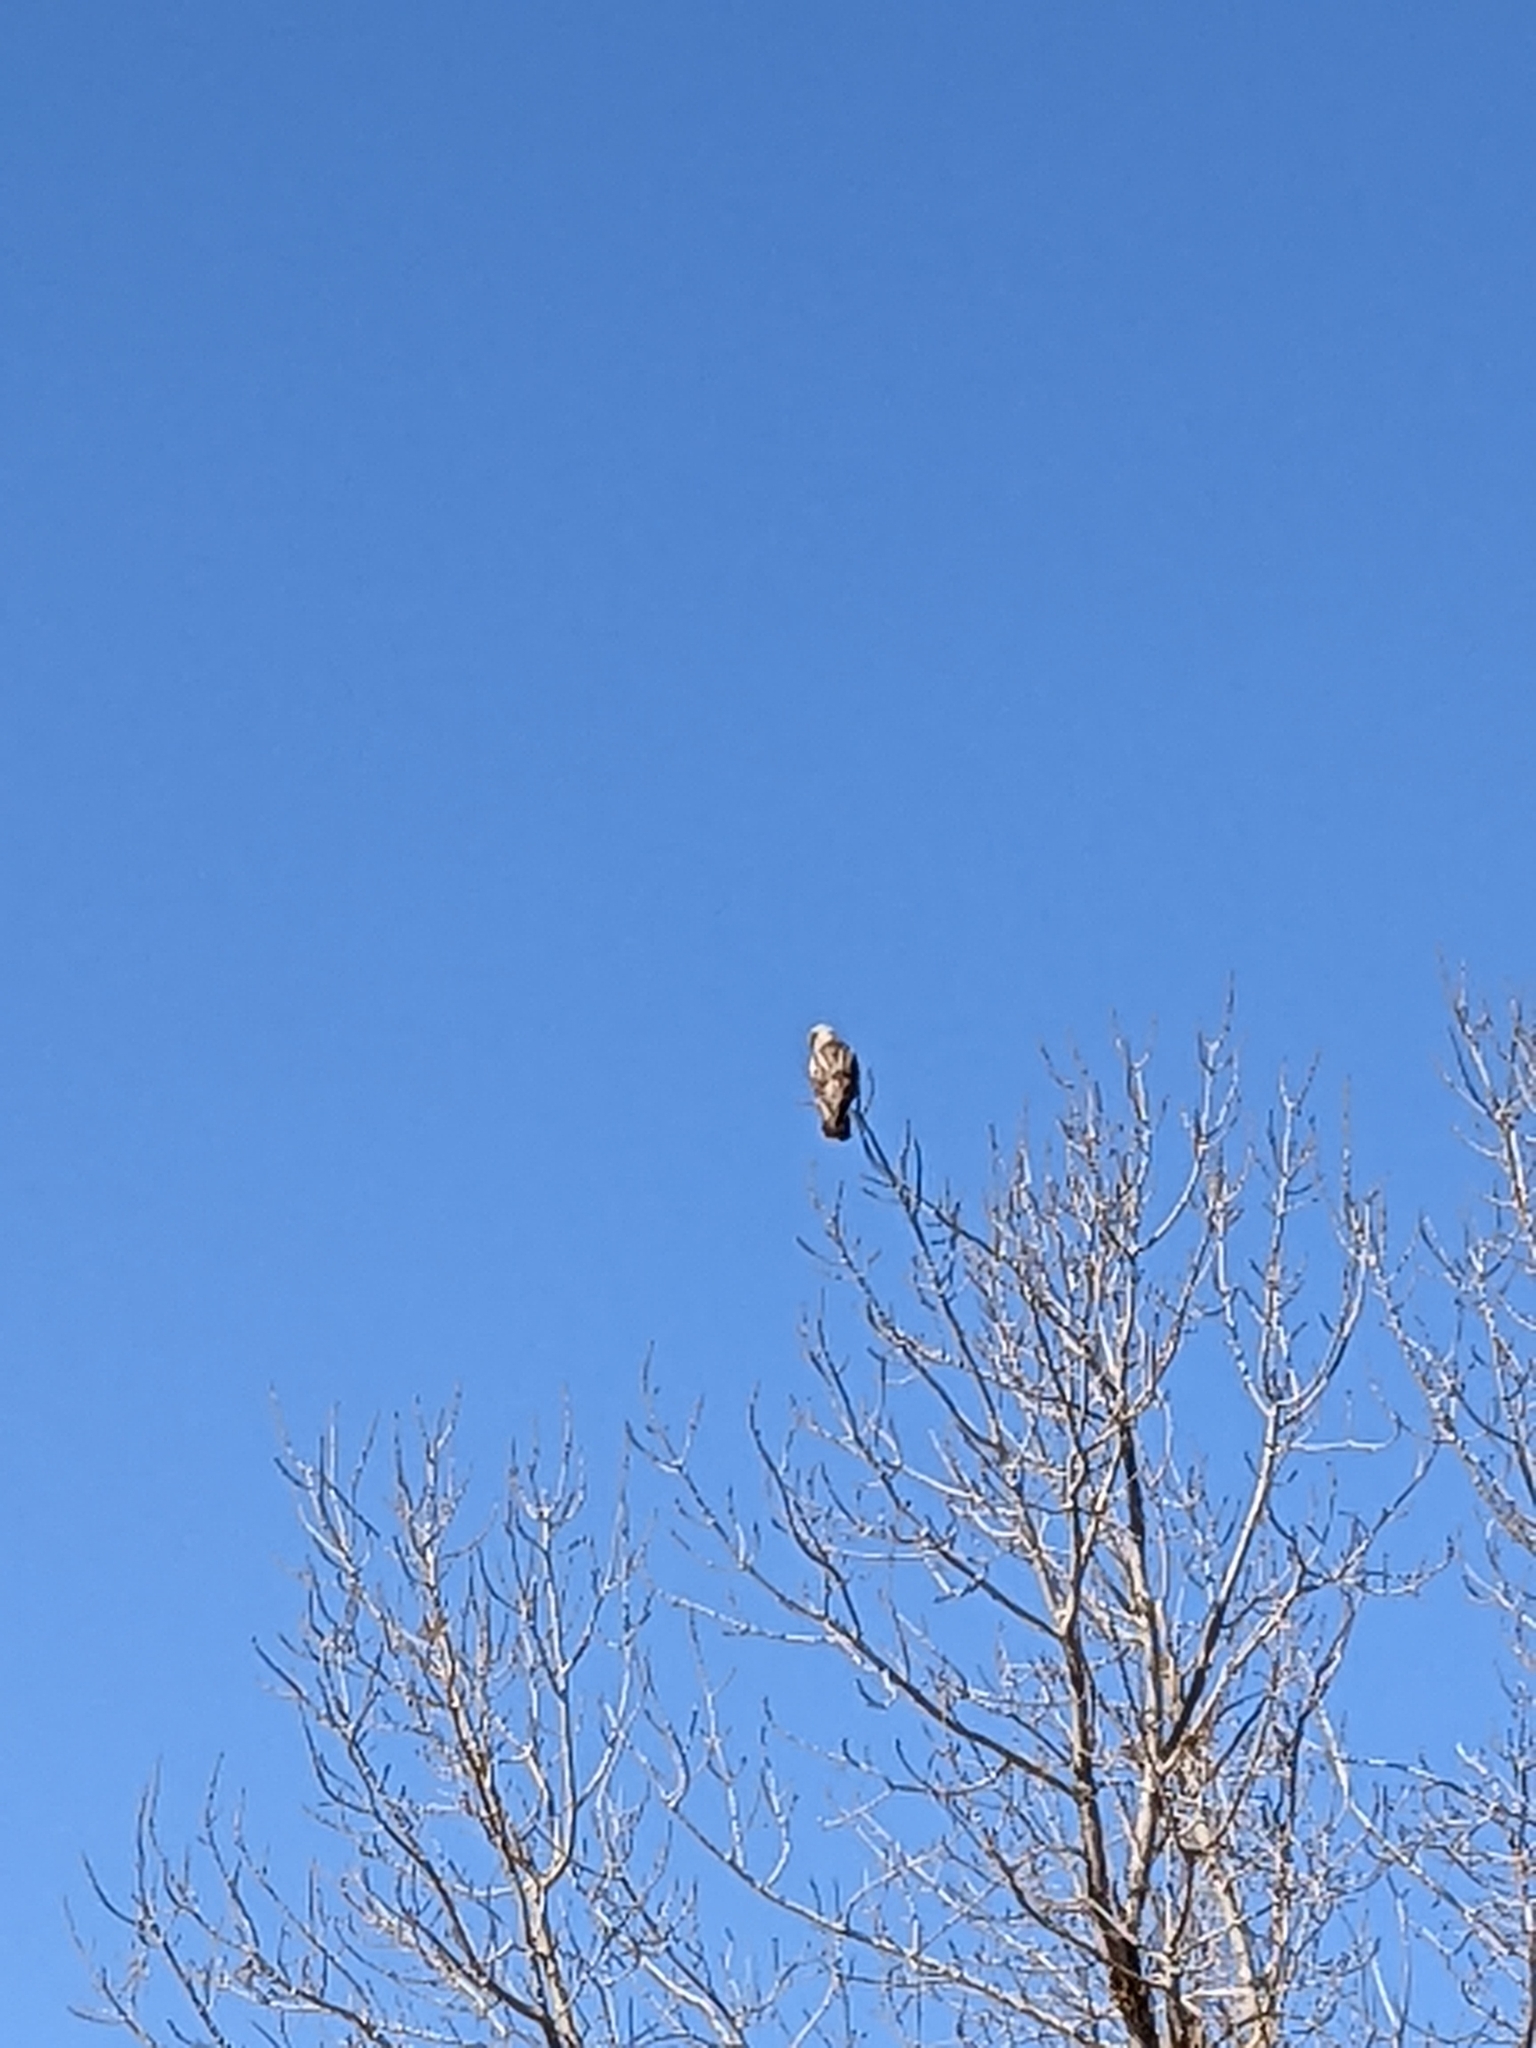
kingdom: Animalia
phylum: Chordata
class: Aves
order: Accipitriformes
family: Accipitridae
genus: Buteo
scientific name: Buteo lagopus
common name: Rough-legged buzzard
